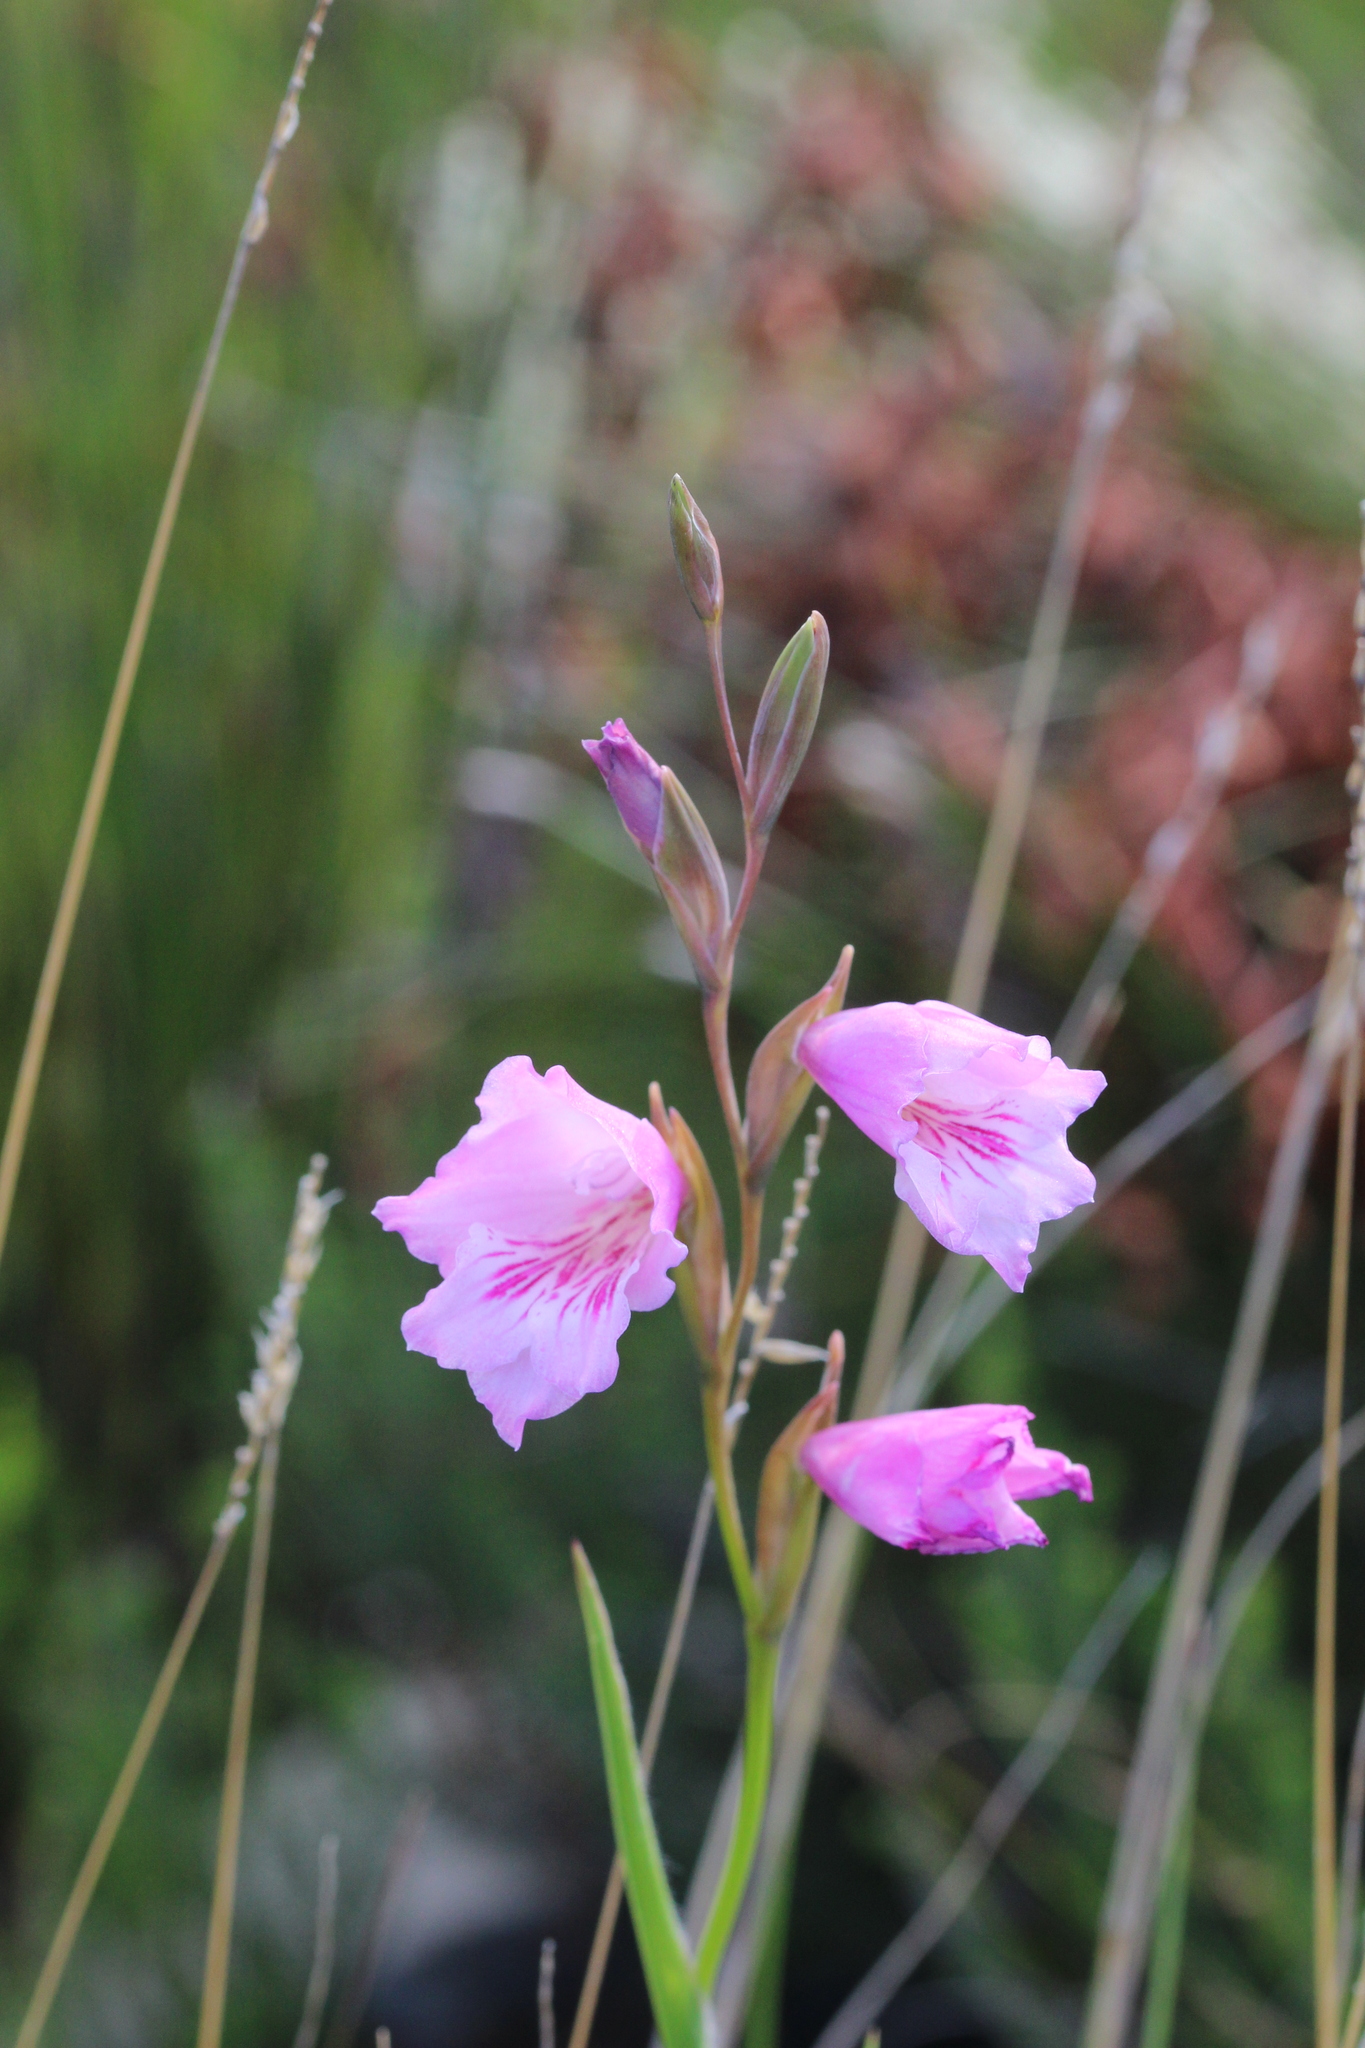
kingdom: Plantae
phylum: Tracheophyta
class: Liliopsida
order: Asparagales
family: Iridaceae
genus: Gladiolus
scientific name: Gladiolus hirsutus
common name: Small pink afrikaner
